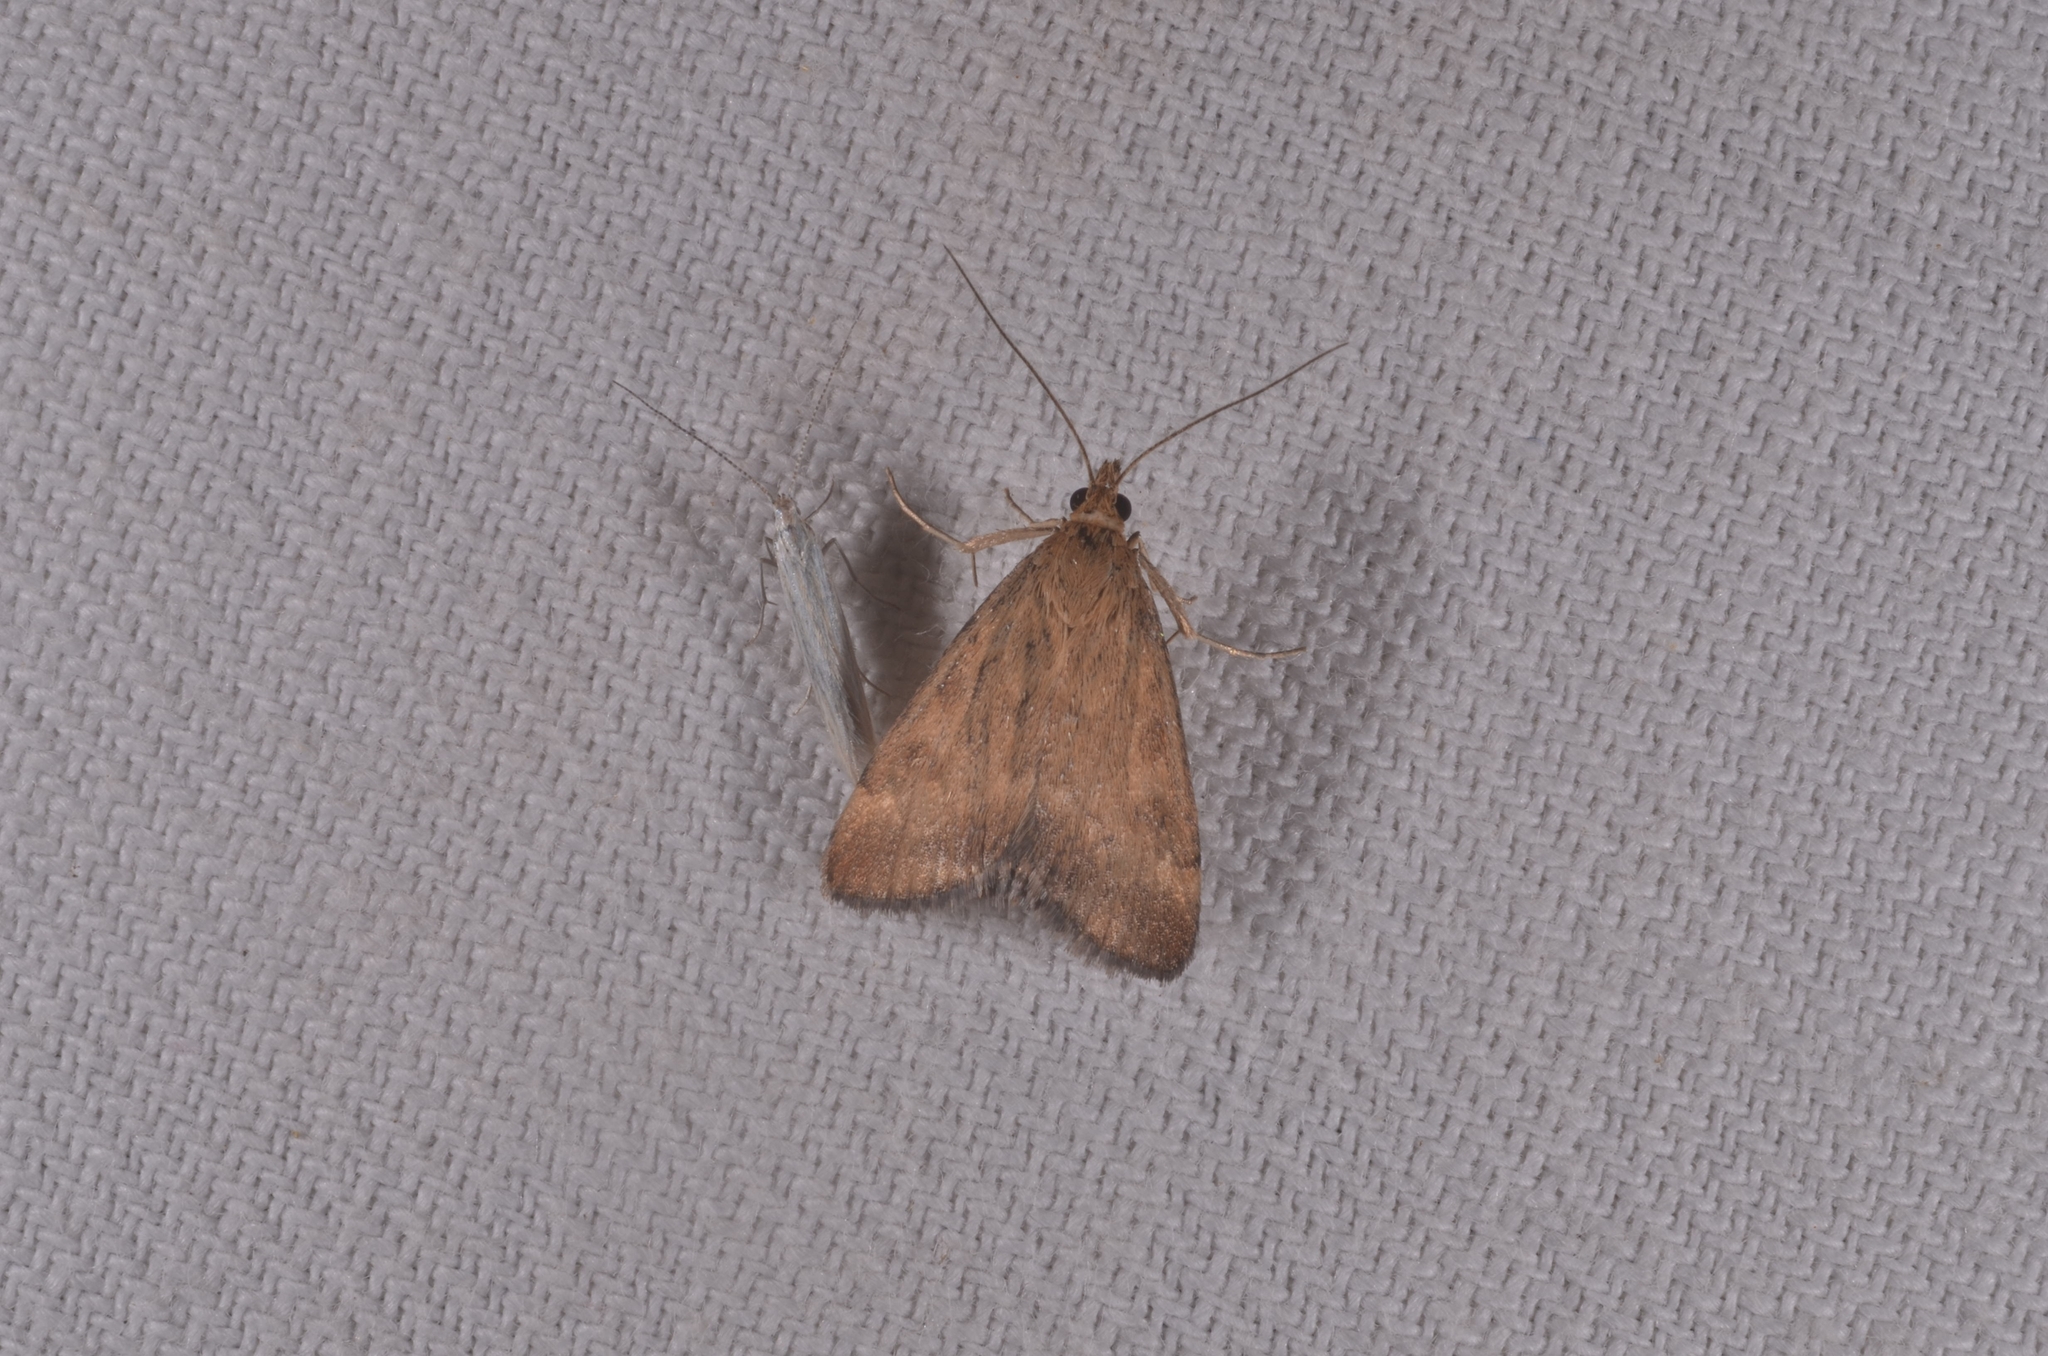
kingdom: Animalia
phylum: Arthropoda
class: Insecta
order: Lepidoptera
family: Crambidae
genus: Pyrausta
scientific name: Pyrausta despicata
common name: Straw-barred pearl
